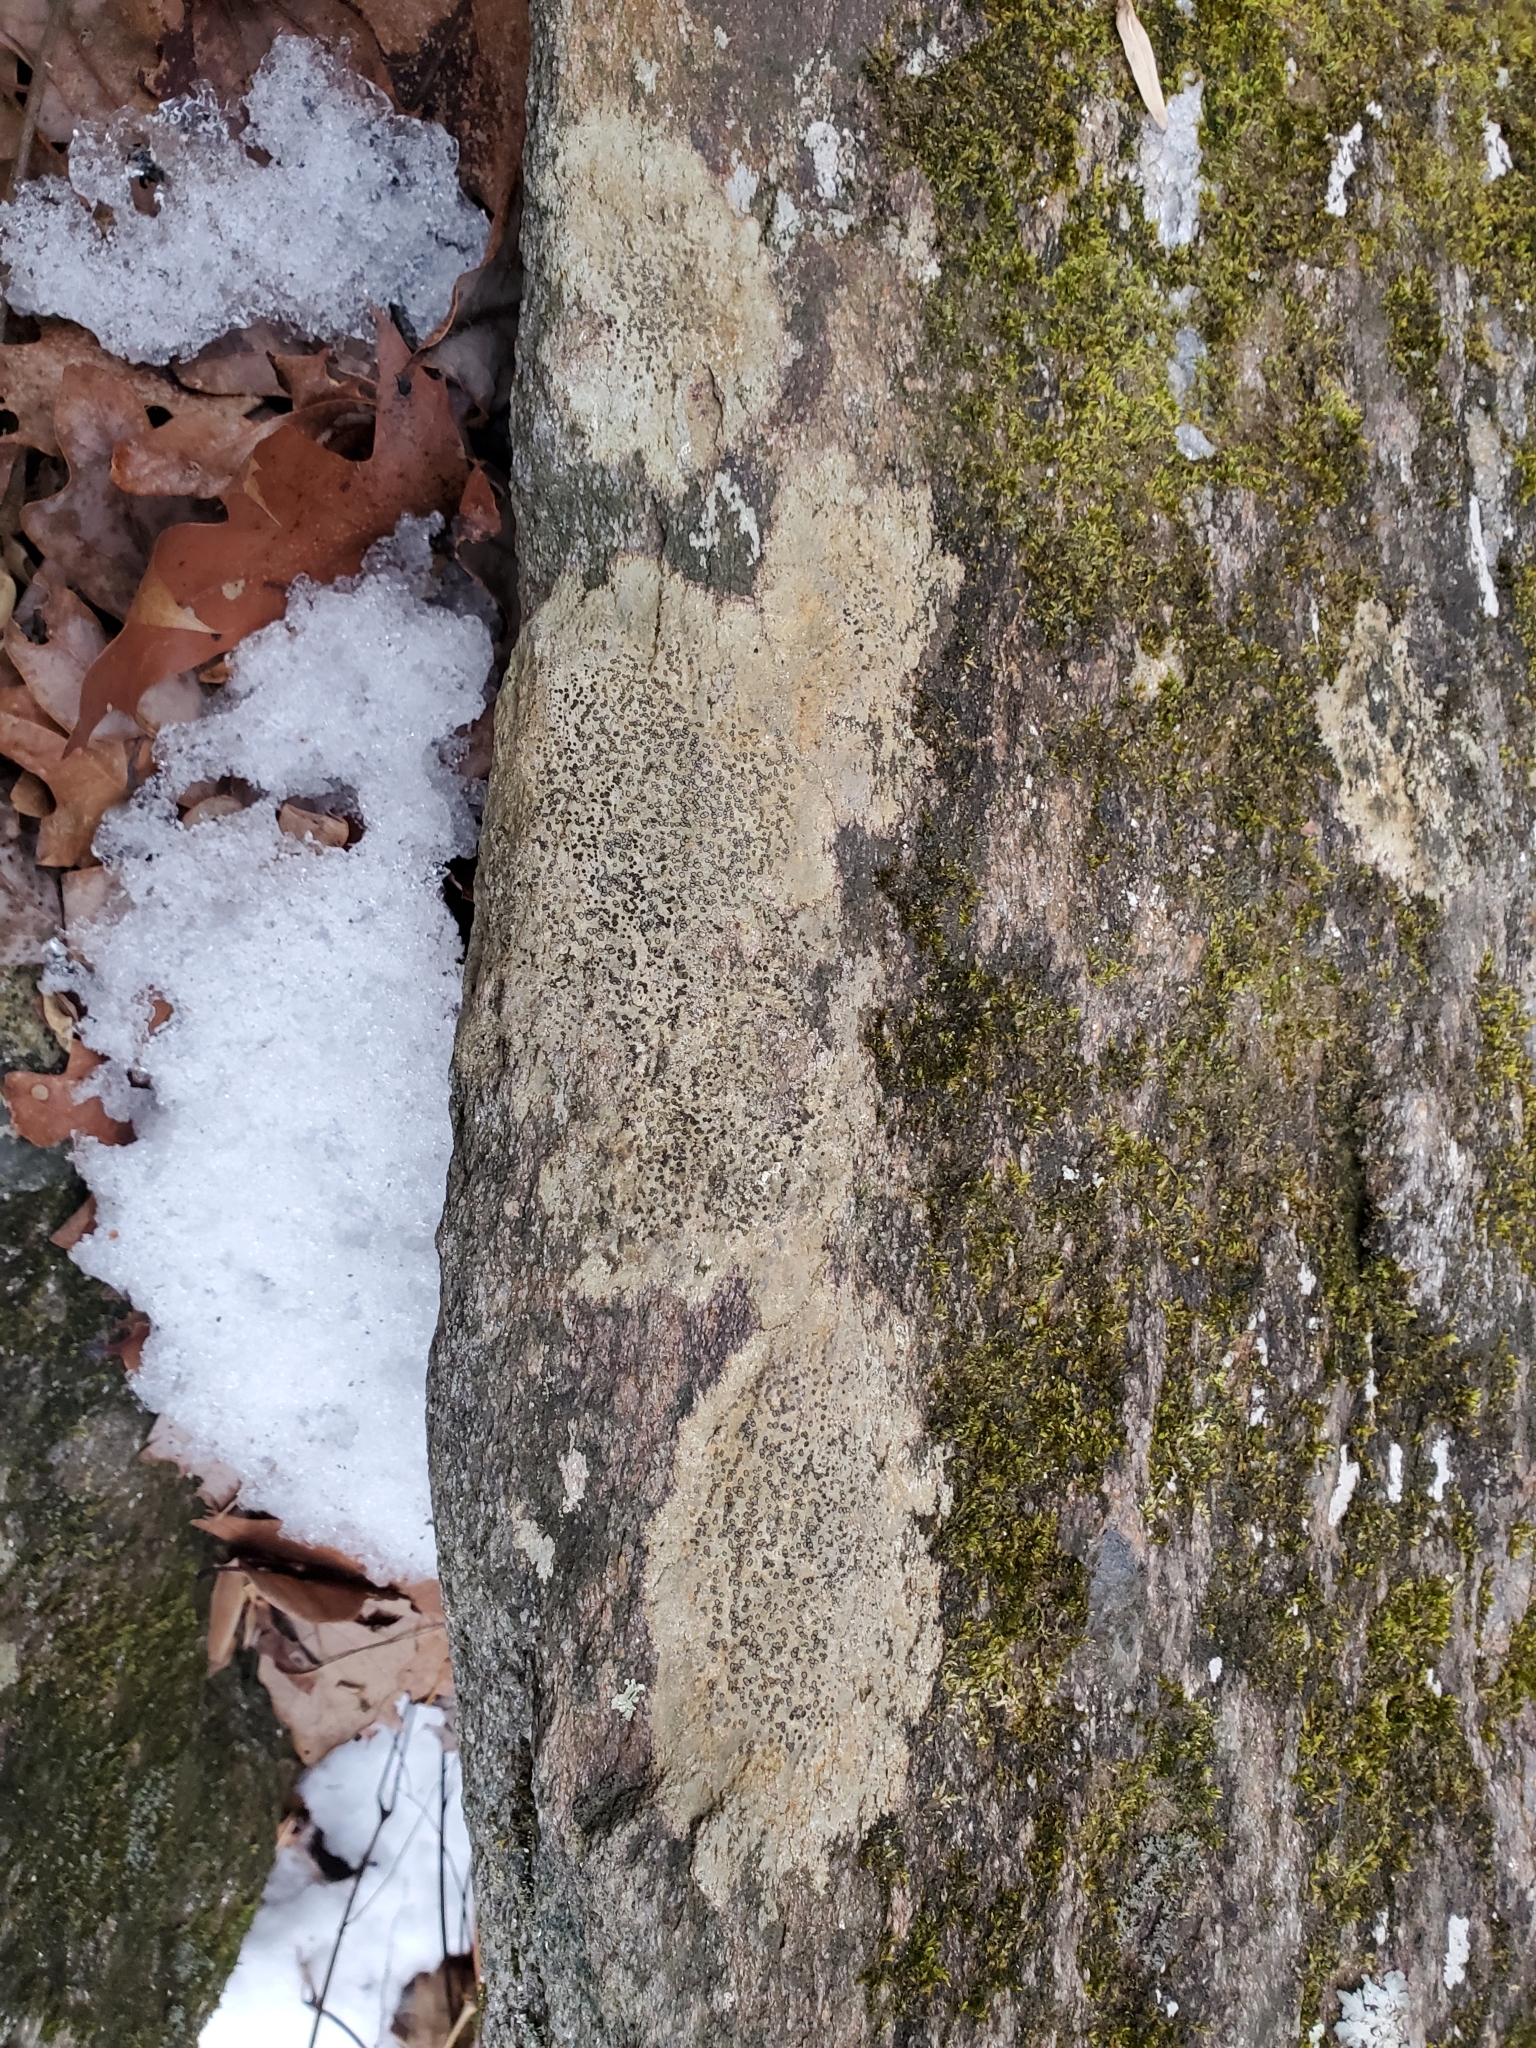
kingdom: Fungi
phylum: Ascomycota
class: Lecanoromycetes
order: Lecideales
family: Lecideaceae
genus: Porpidia
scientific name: Porpidia albocaerulescens
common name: Smokey-eyed boulder lichen
